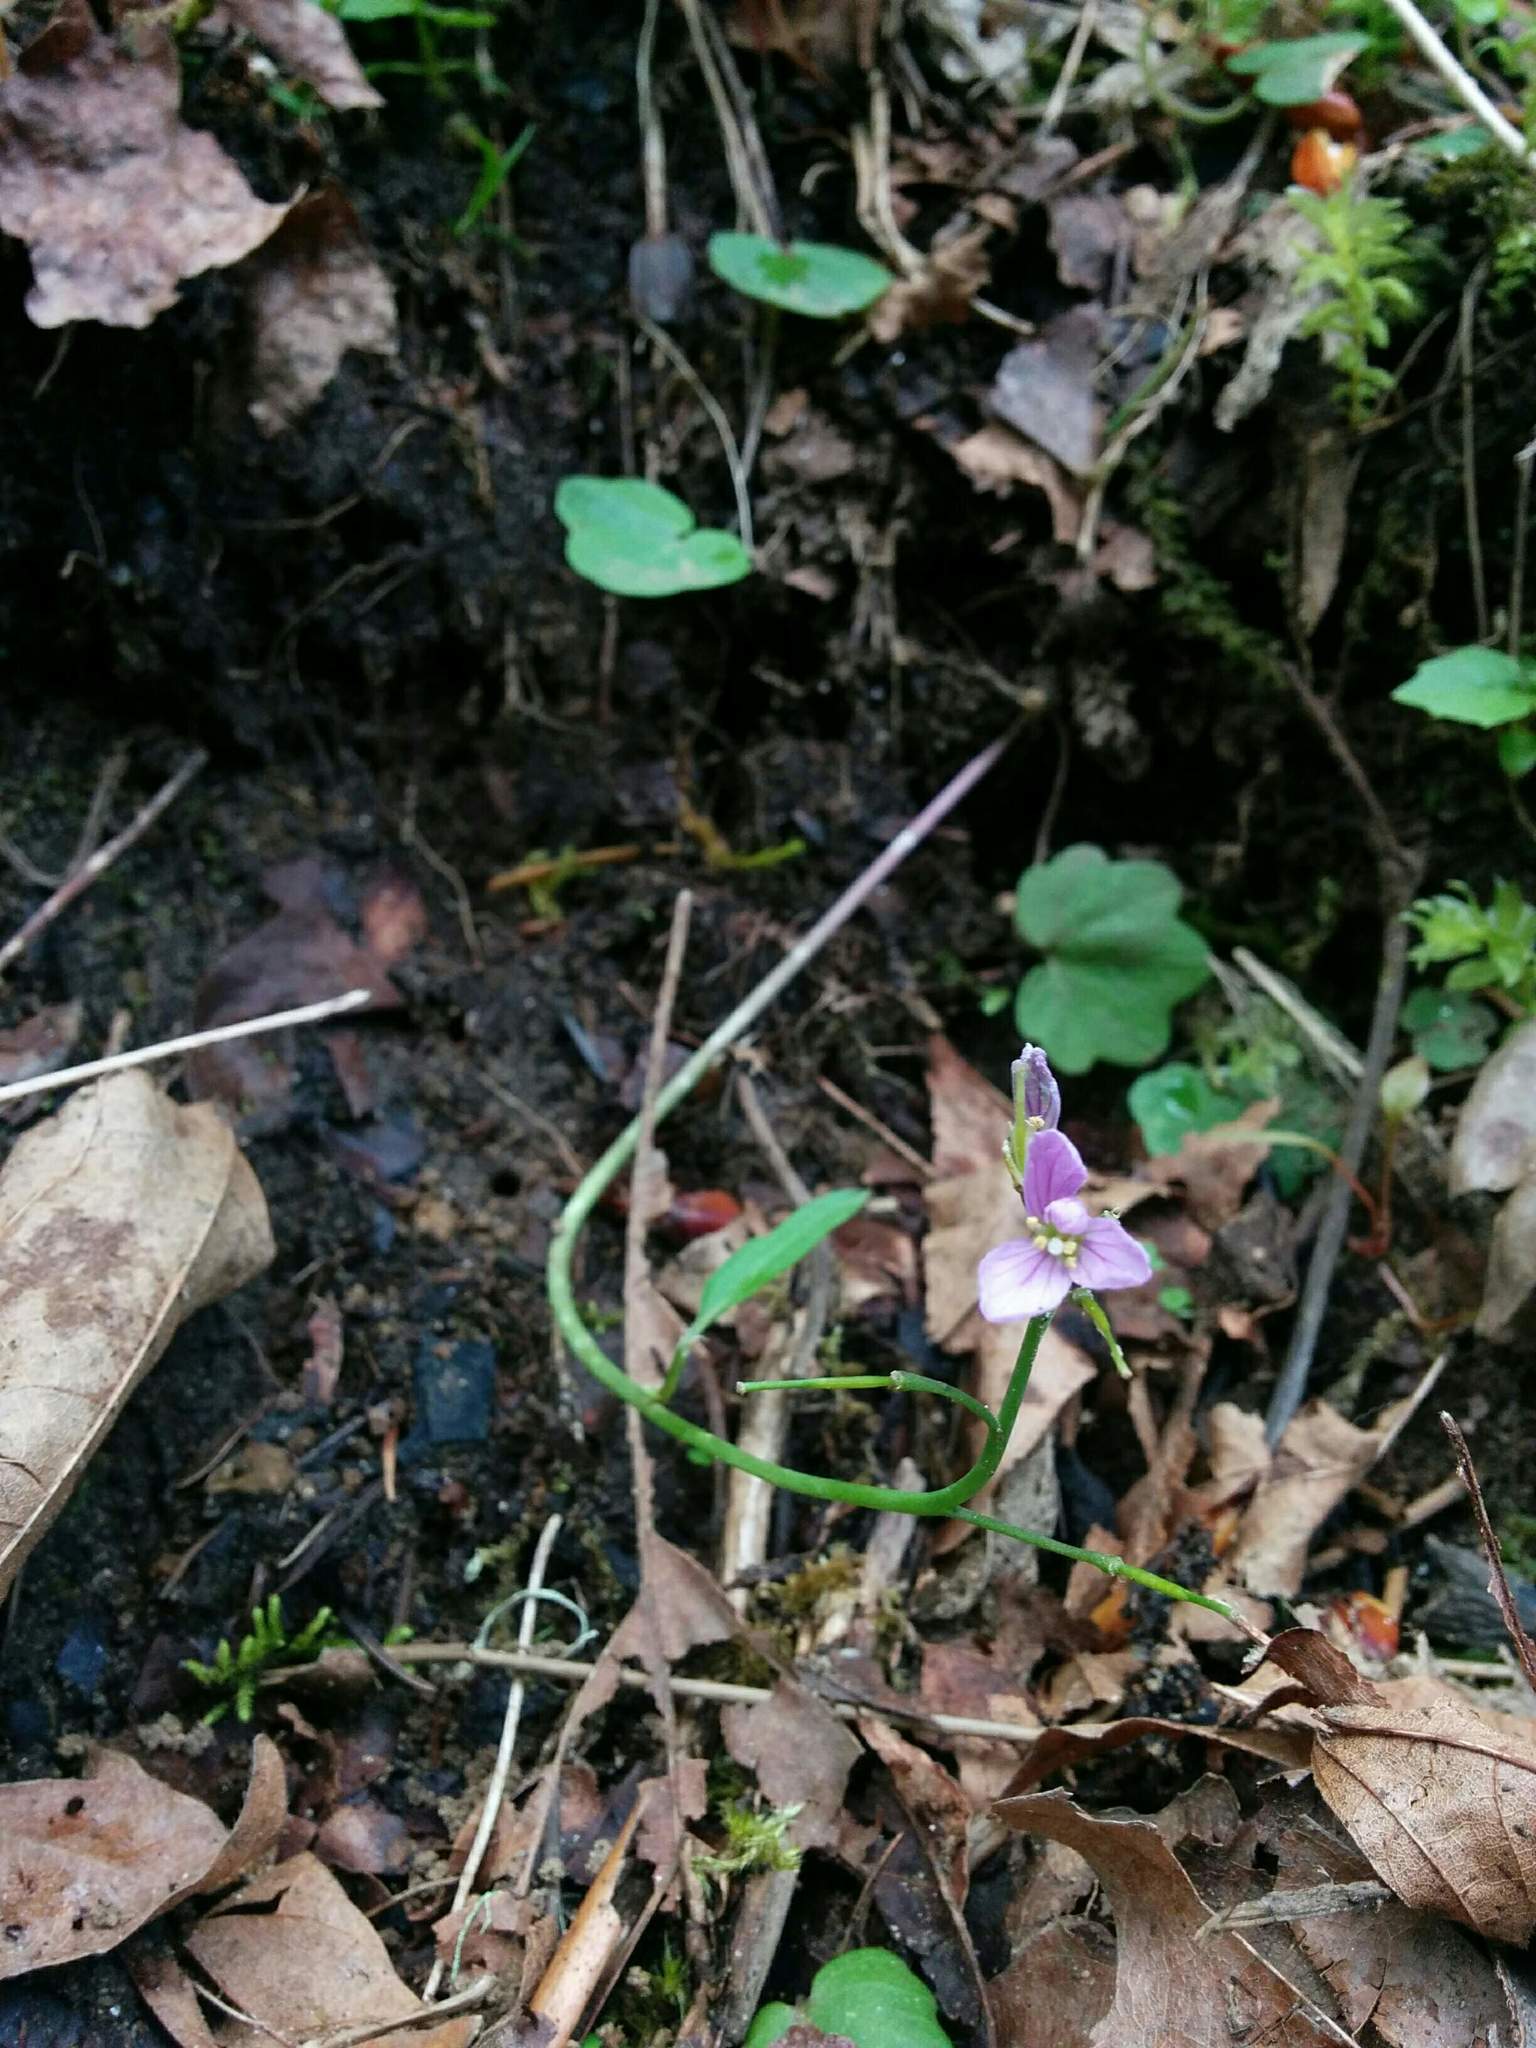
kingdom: Plantae
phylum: Tracheophyta
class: Magnoliopsida
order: Brassicales
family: Brassicaceae
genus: Cardamine
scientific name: Cardamine nuttallii
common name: Nuttall's toothwort
